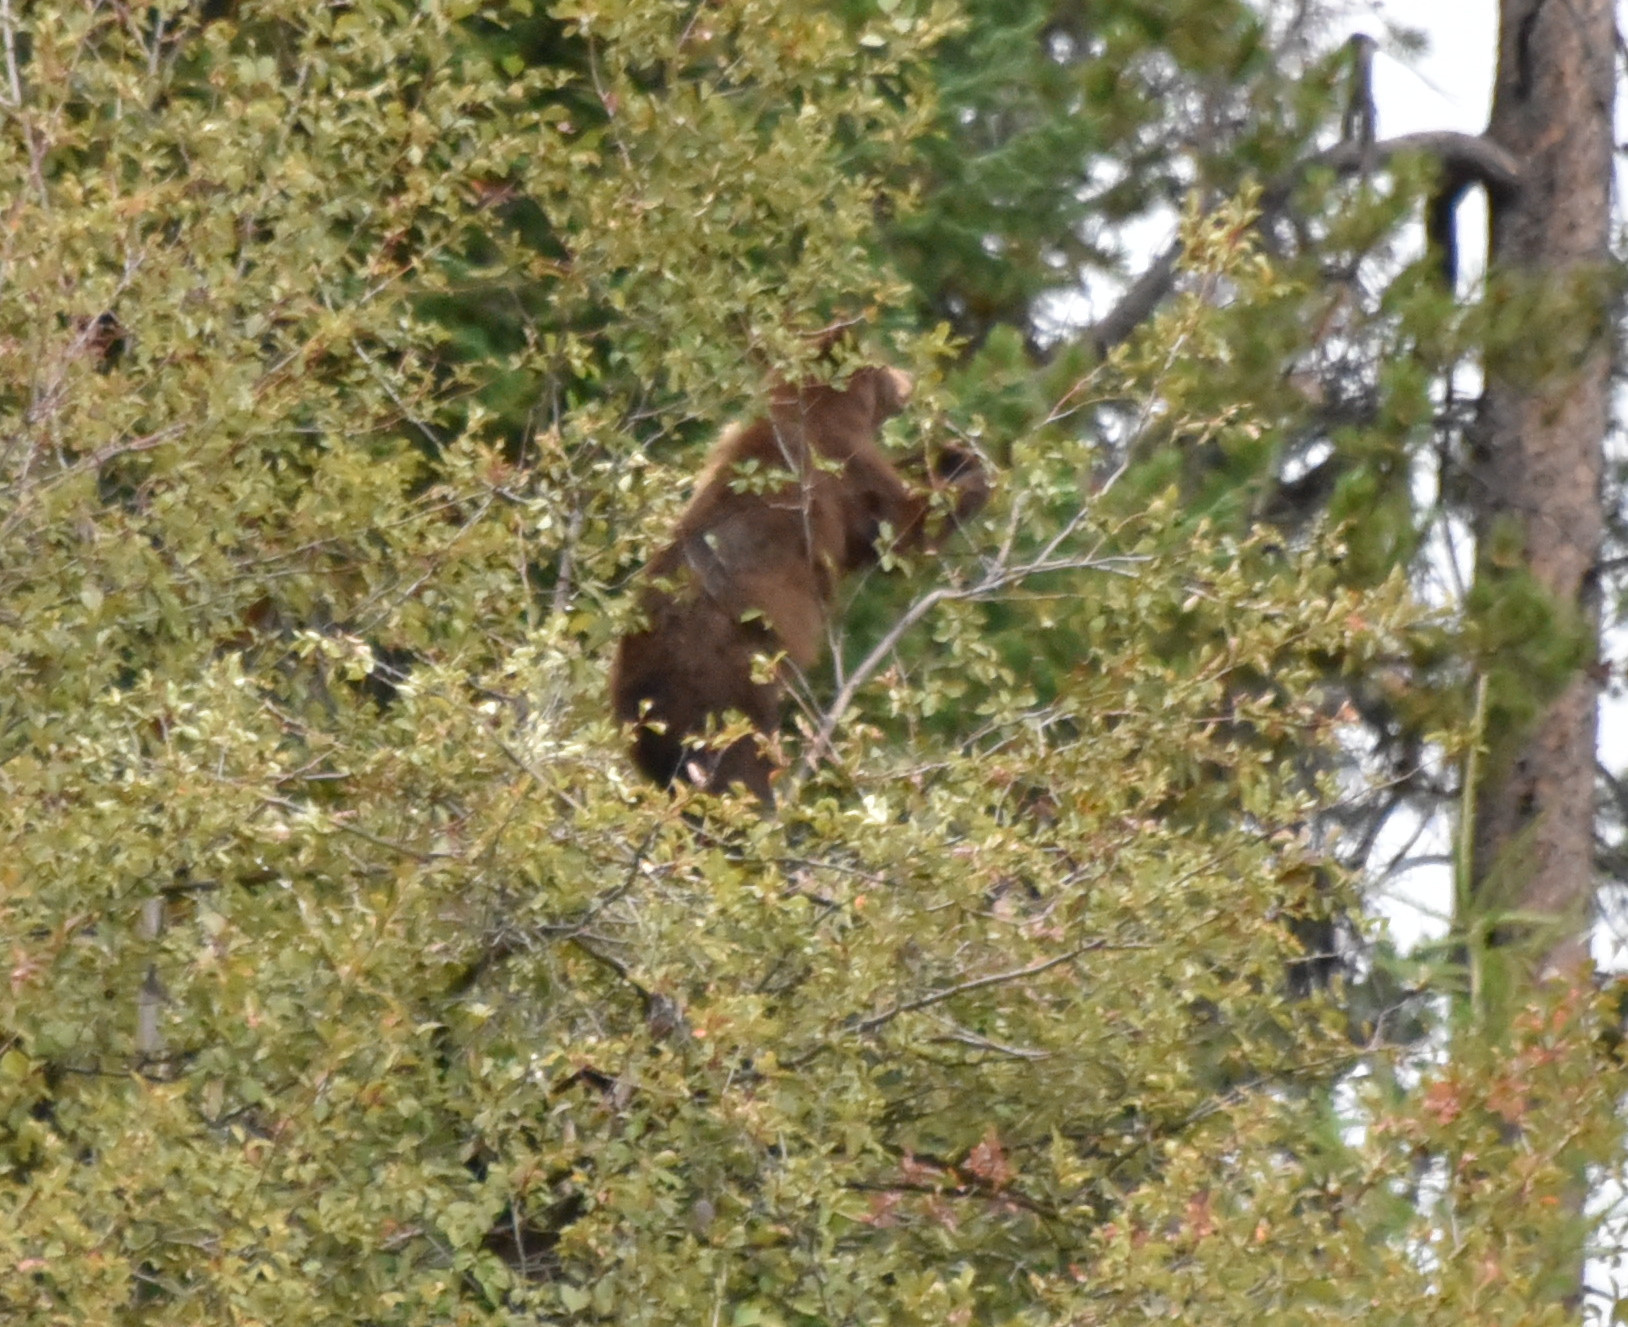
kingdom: Animalia
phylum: Chordata
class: Mammalia
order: Carnivora
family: Ursidae
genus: Ursus
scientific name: Ursus americanus
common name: American black bear
